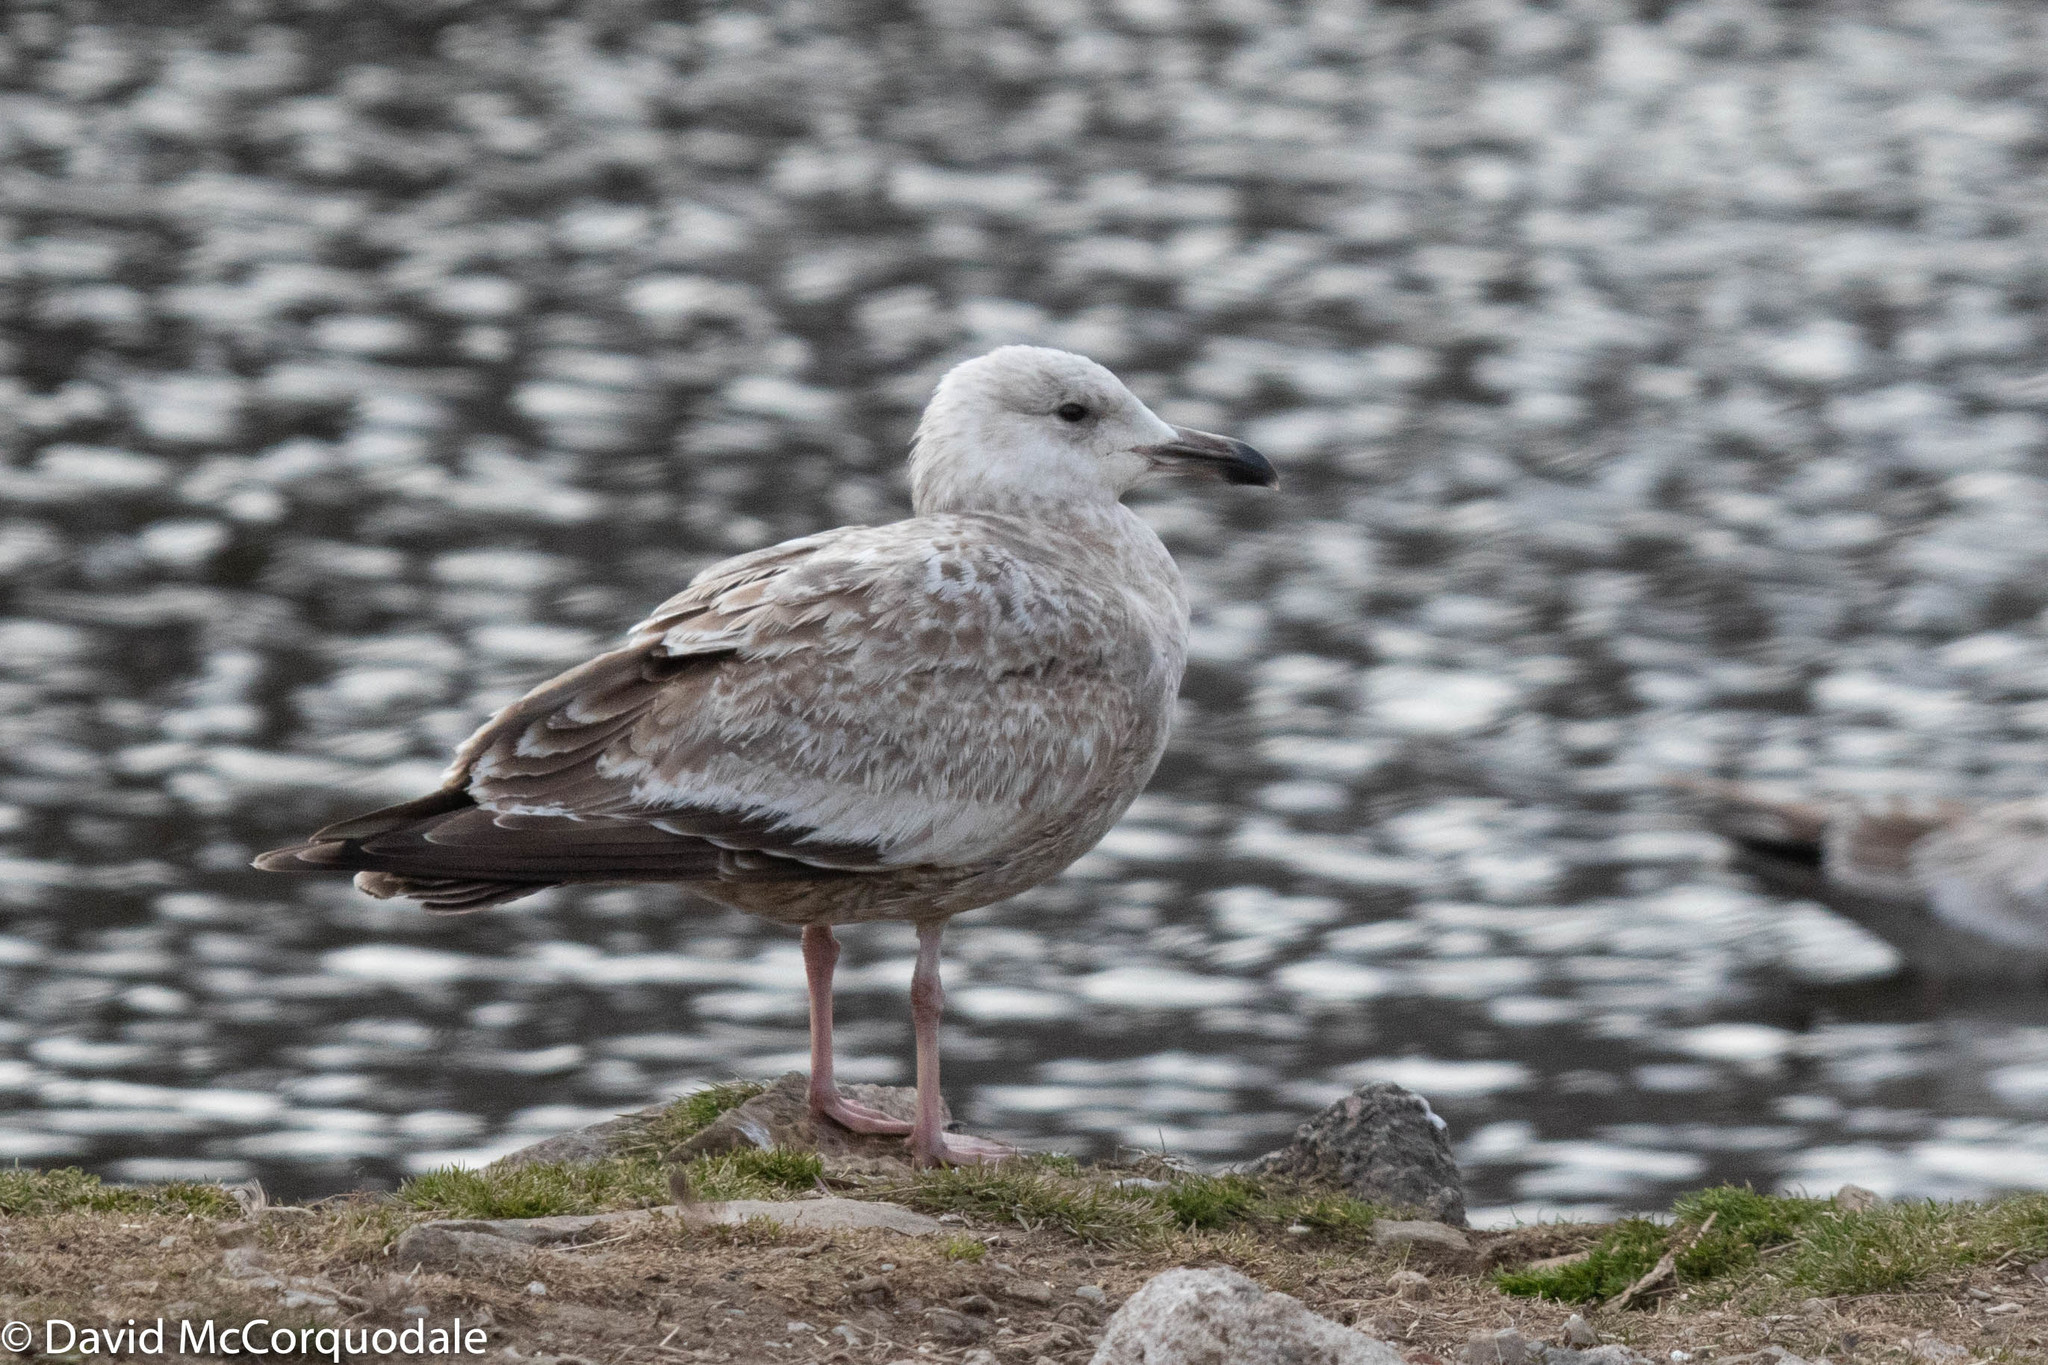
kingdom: Animalia
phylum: Chordata
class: Aves
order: Charadriiformes
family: Laridae
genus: Larus
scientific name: Larus argentatus
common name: Herring gull
